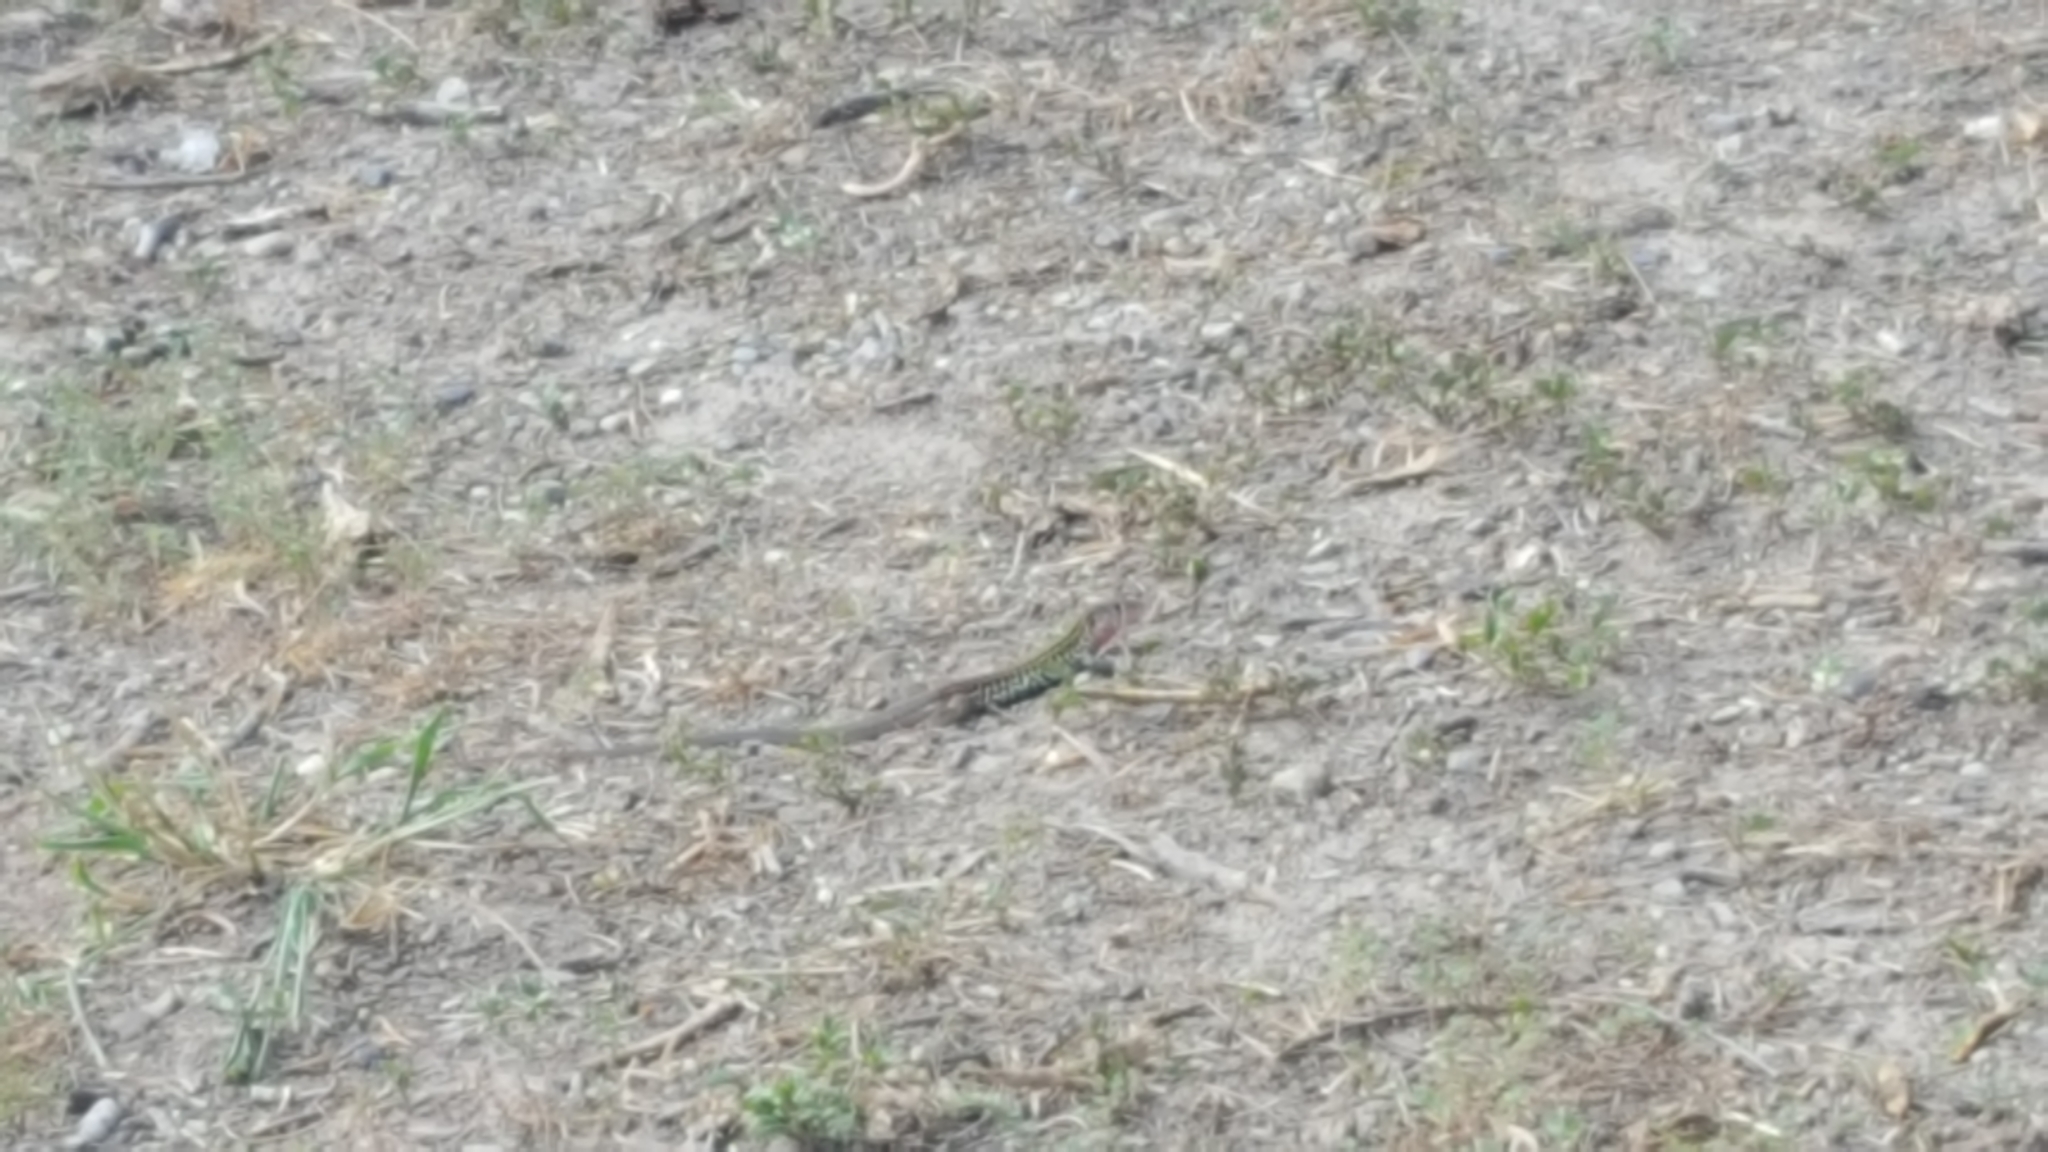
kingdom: Animalia
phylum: Chordata
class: Squamata
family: Teiidae
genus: Aspidoscelis
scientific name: Aspidoscelis gularis
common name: Eastern spotted whiptail
